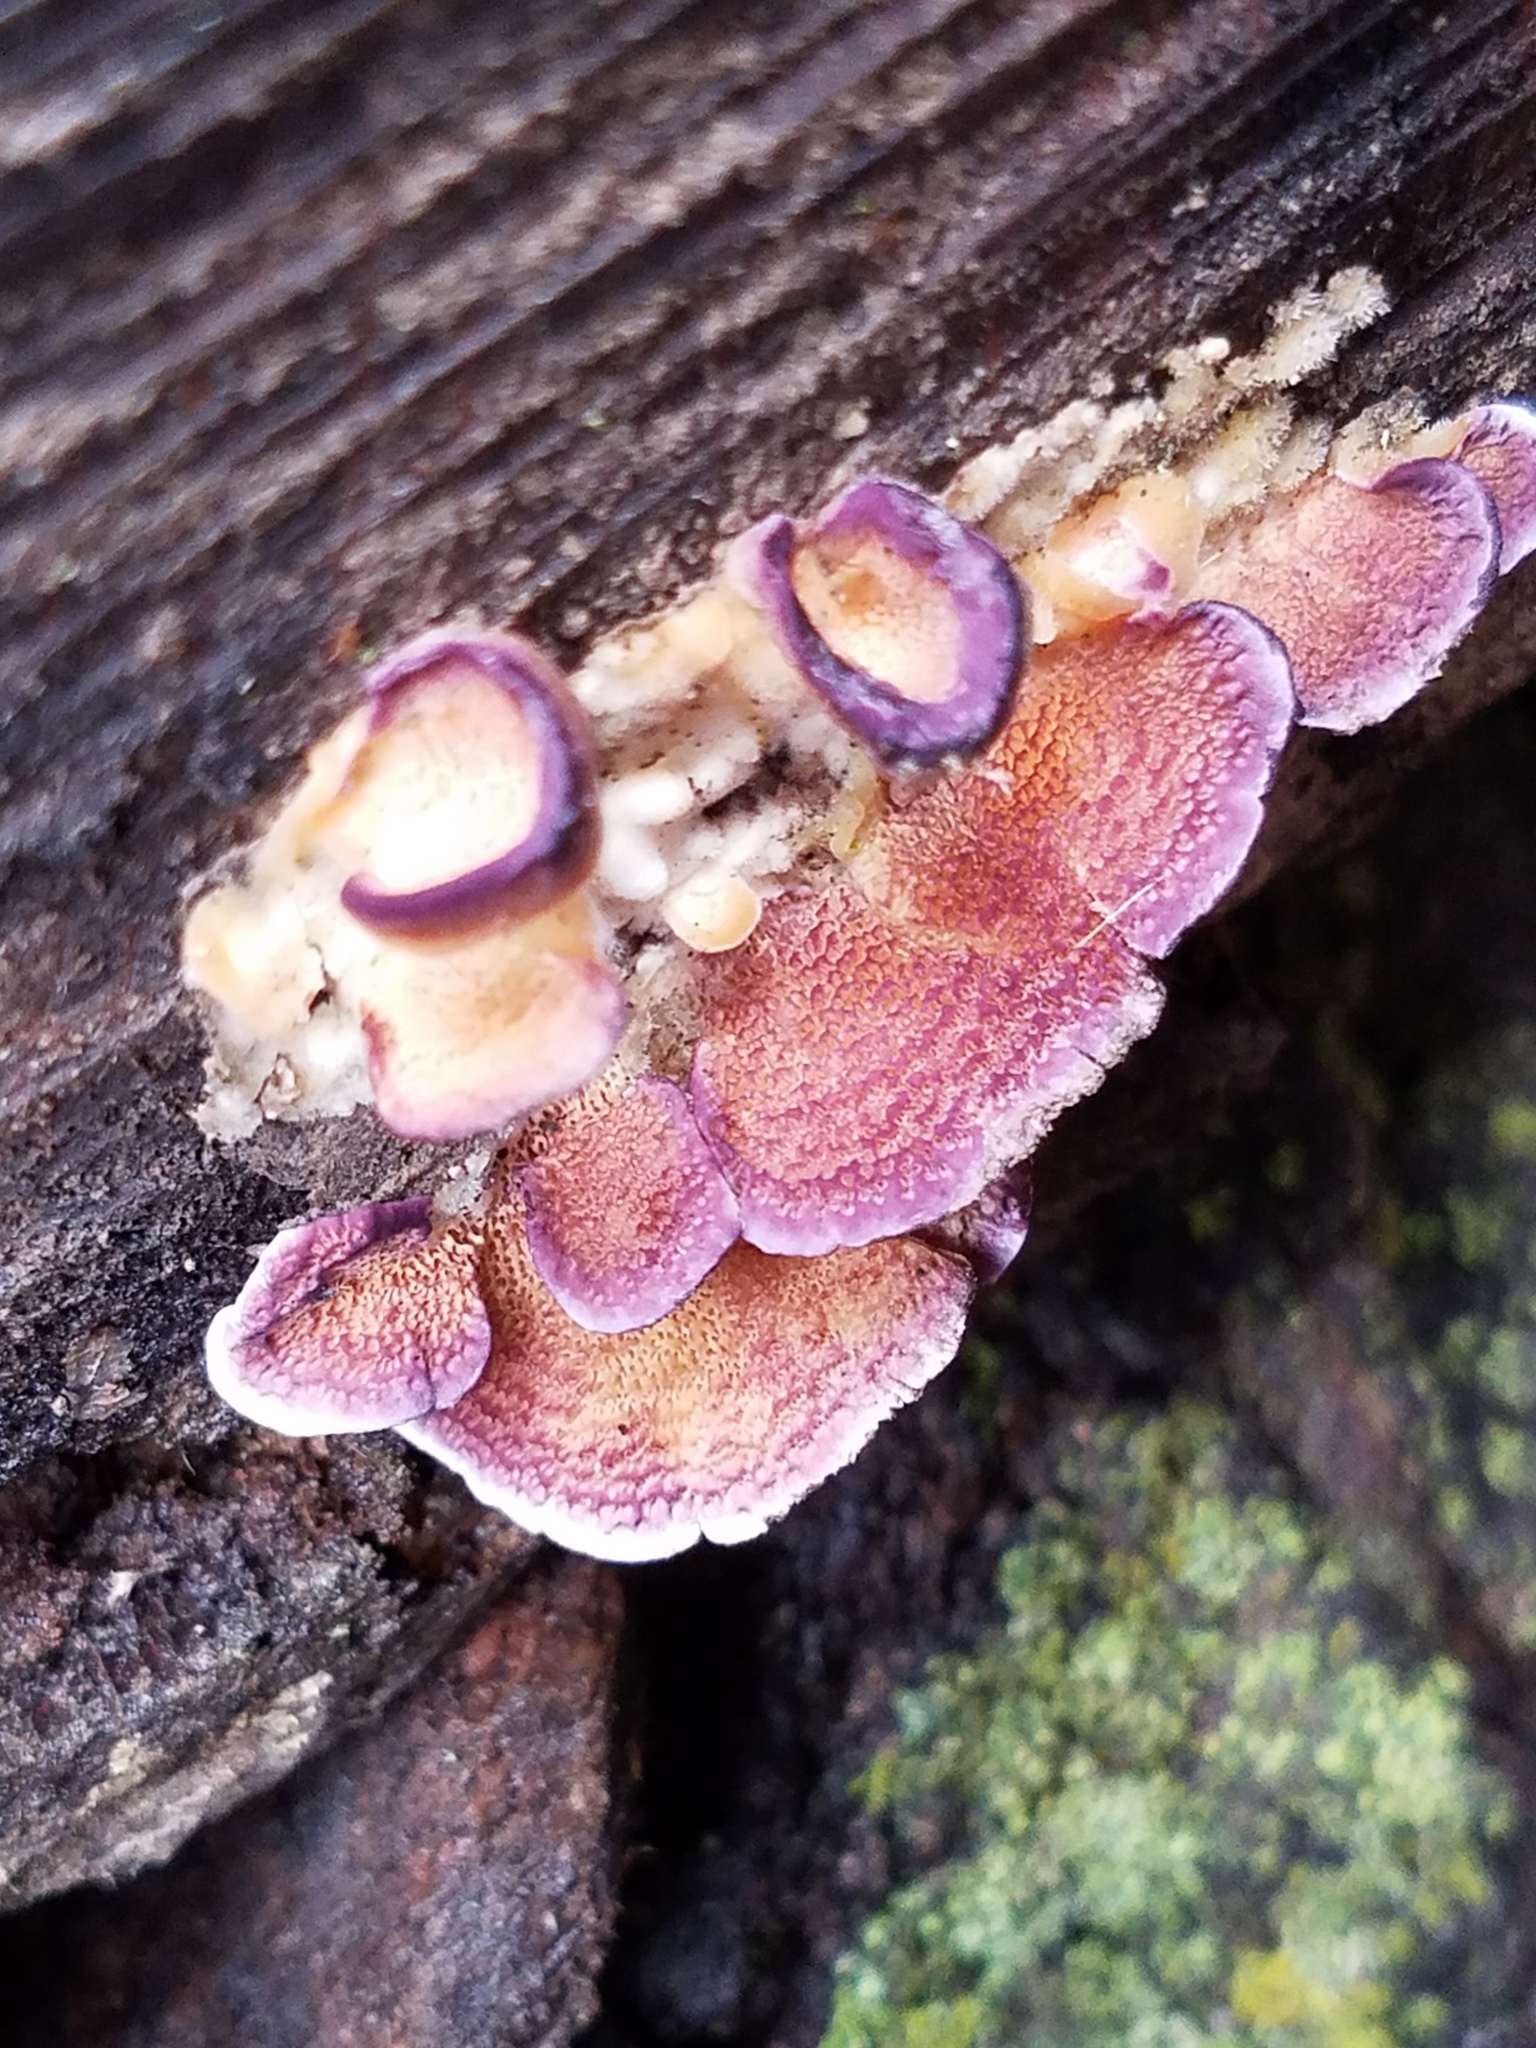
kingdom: Fungi
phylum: Basidiomycota
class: Agaricomycetes
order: Hymenochaetales
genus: Trichaptum
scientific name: Trichaptum biforme
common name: Violet-toothed polypore
